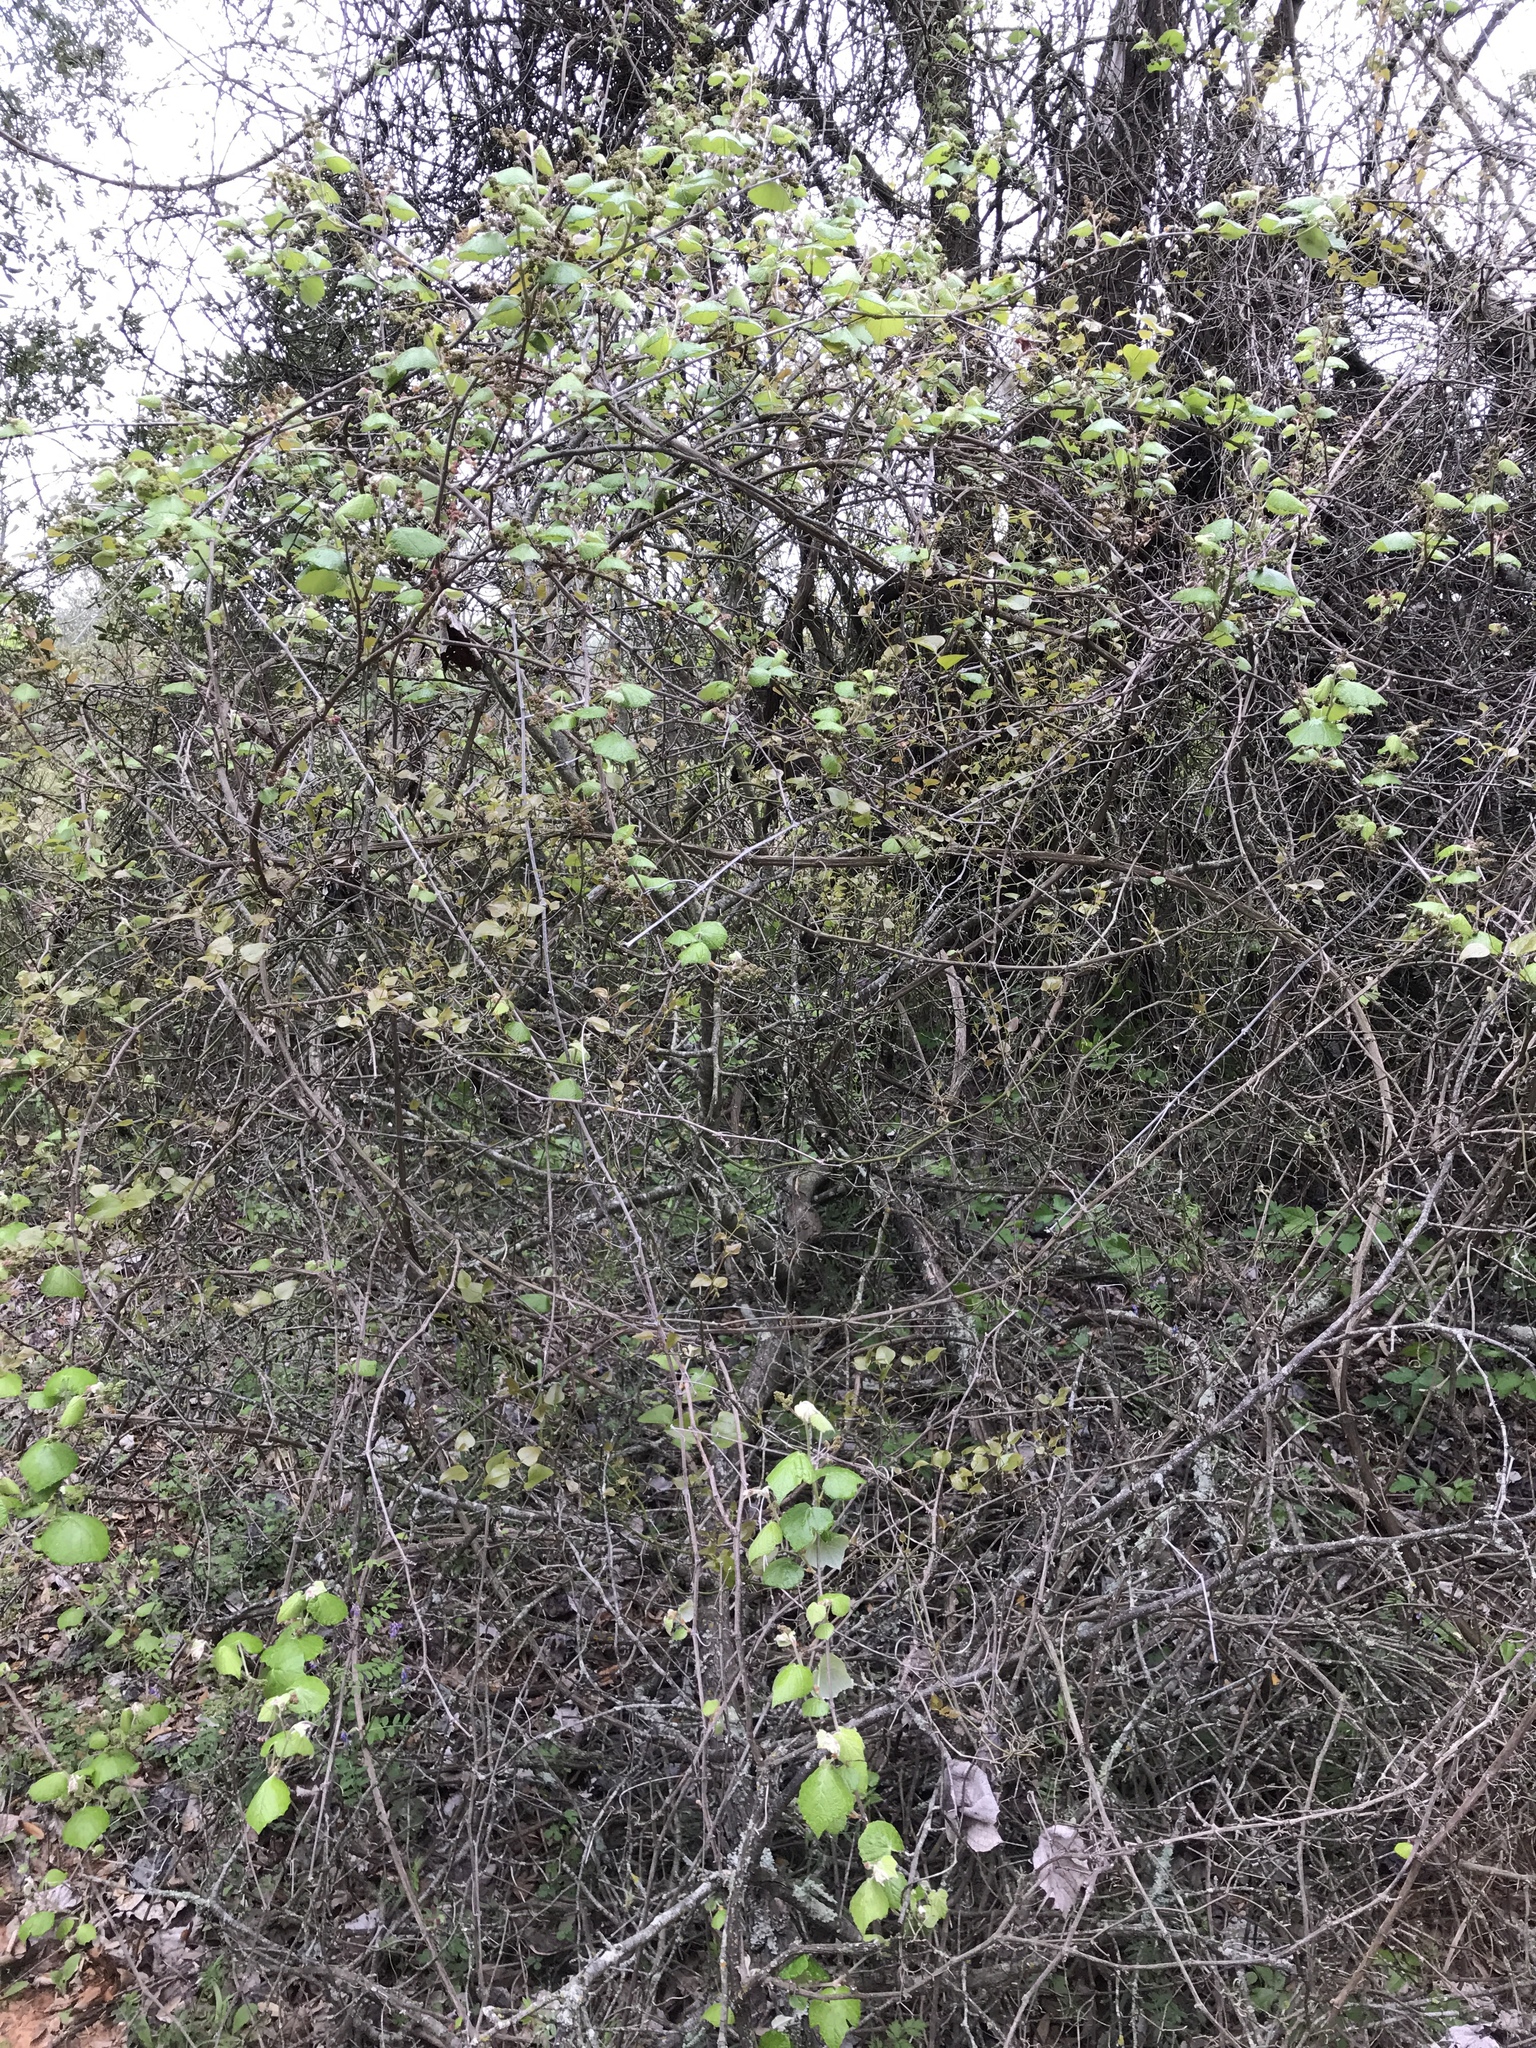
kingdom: Plantae
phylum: Tracheophyta
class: Magnoliopsida
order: Vitales
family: Vitaceae
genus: Vitis
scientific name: Vitis mustangensis
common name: Mustang grape
